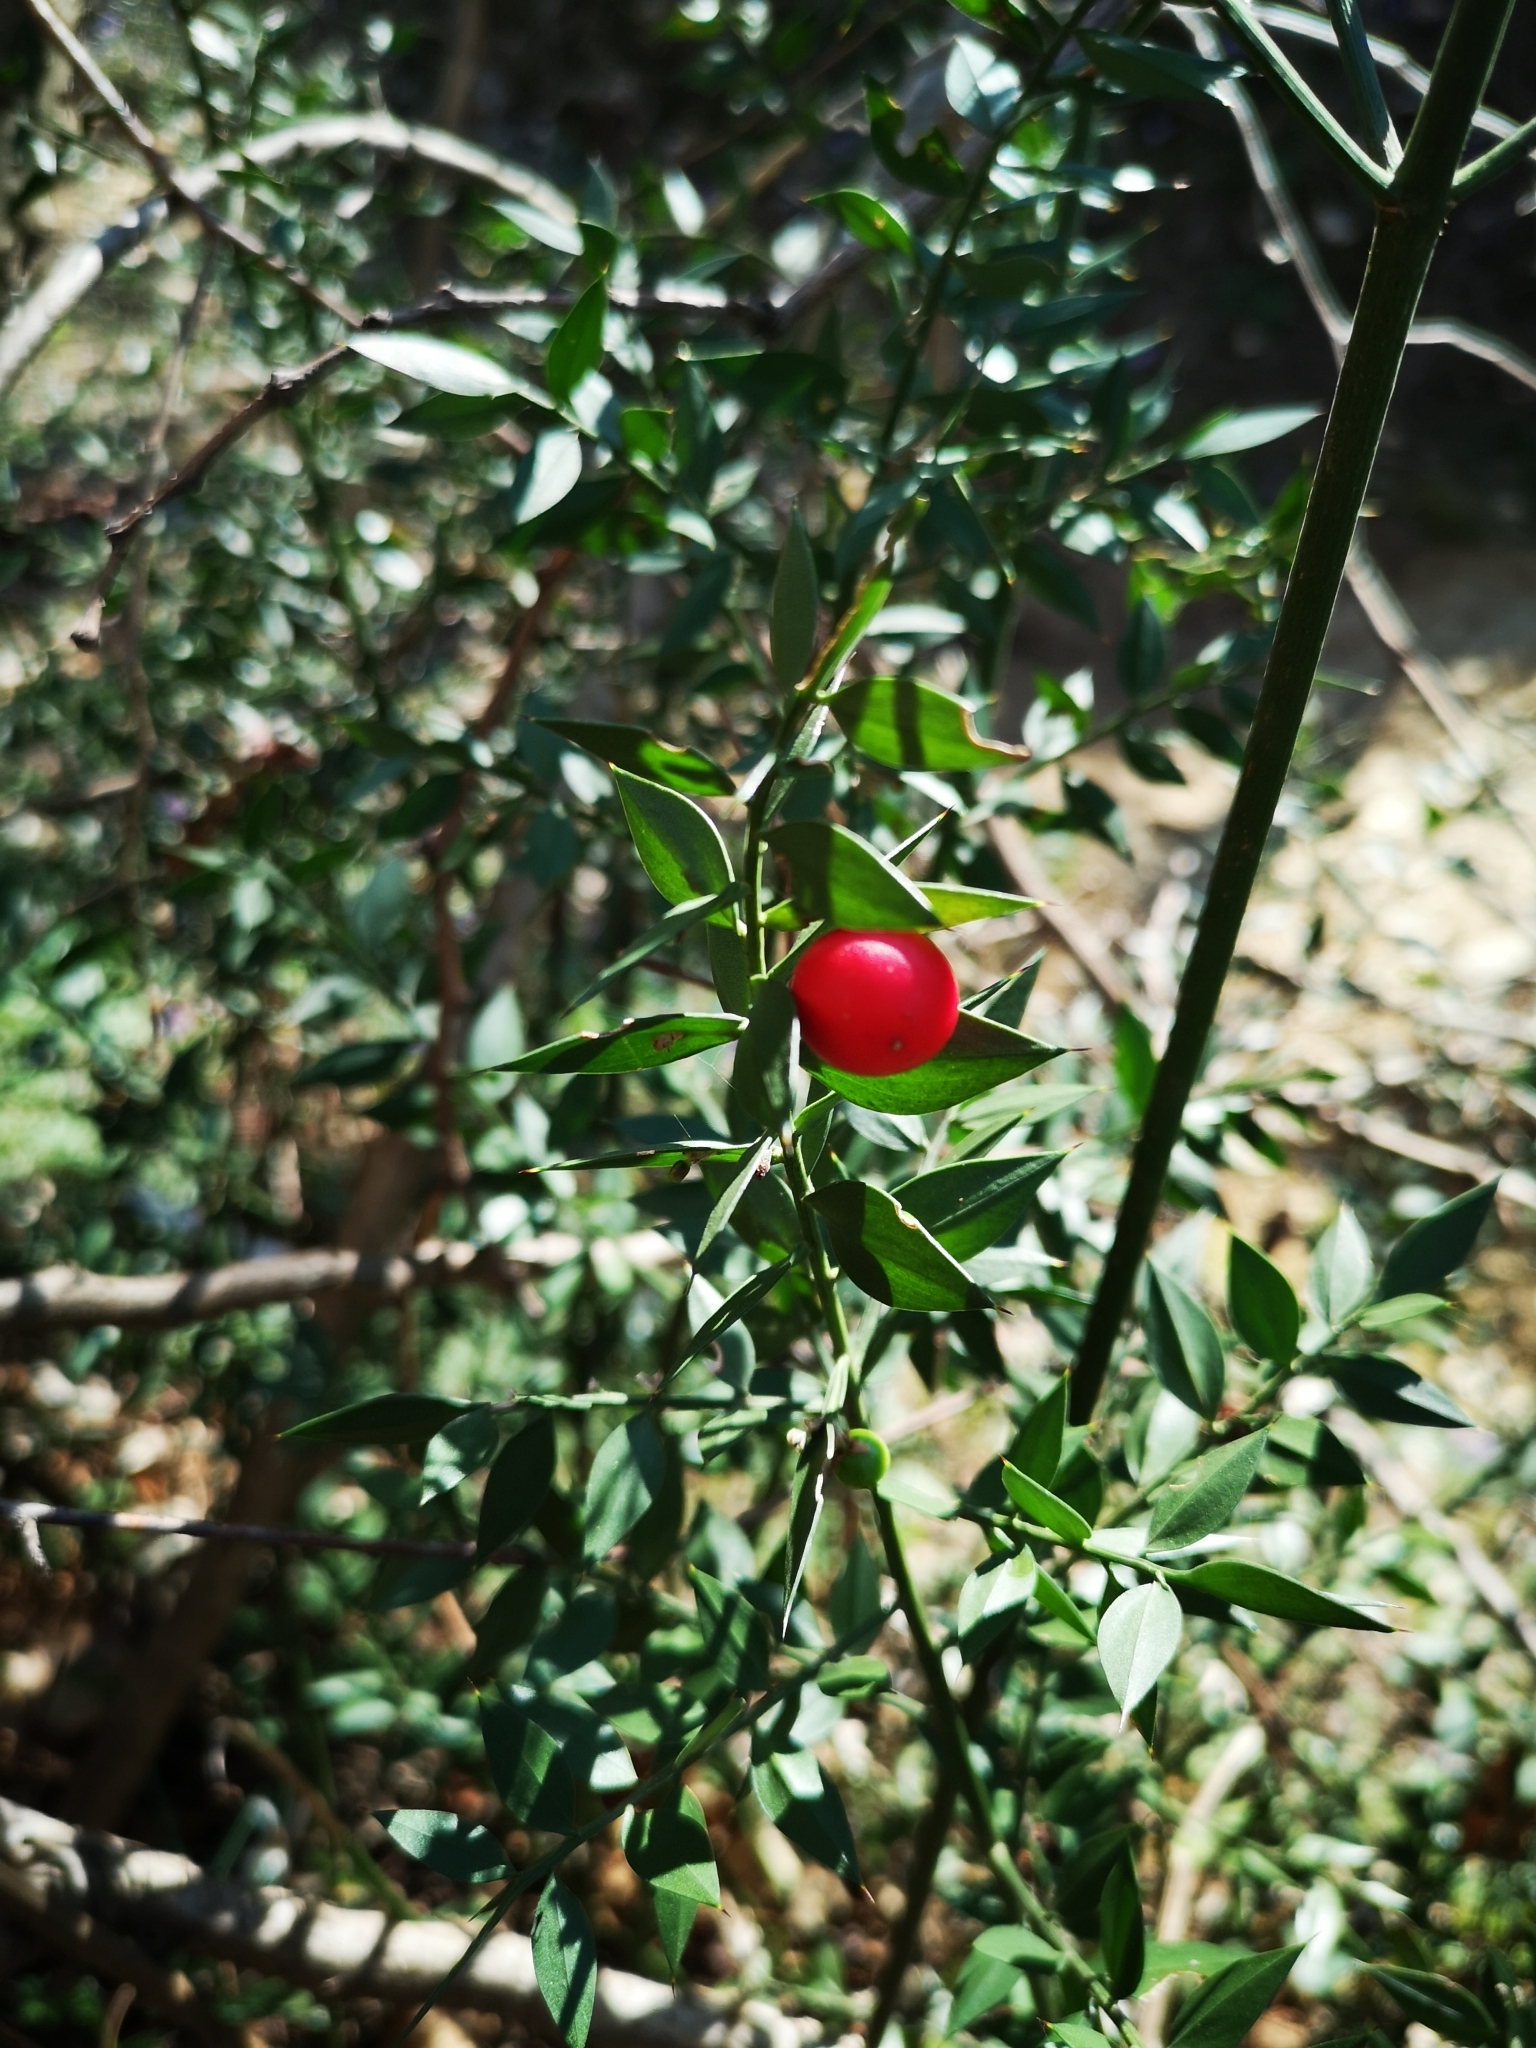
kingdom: Plantae
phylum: Tracheophyta
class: Liliopsida
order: Asparagales
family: Asparagaceae
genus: Ruscus
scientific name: Ruscus aculeatus
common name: Butcher's-broom
